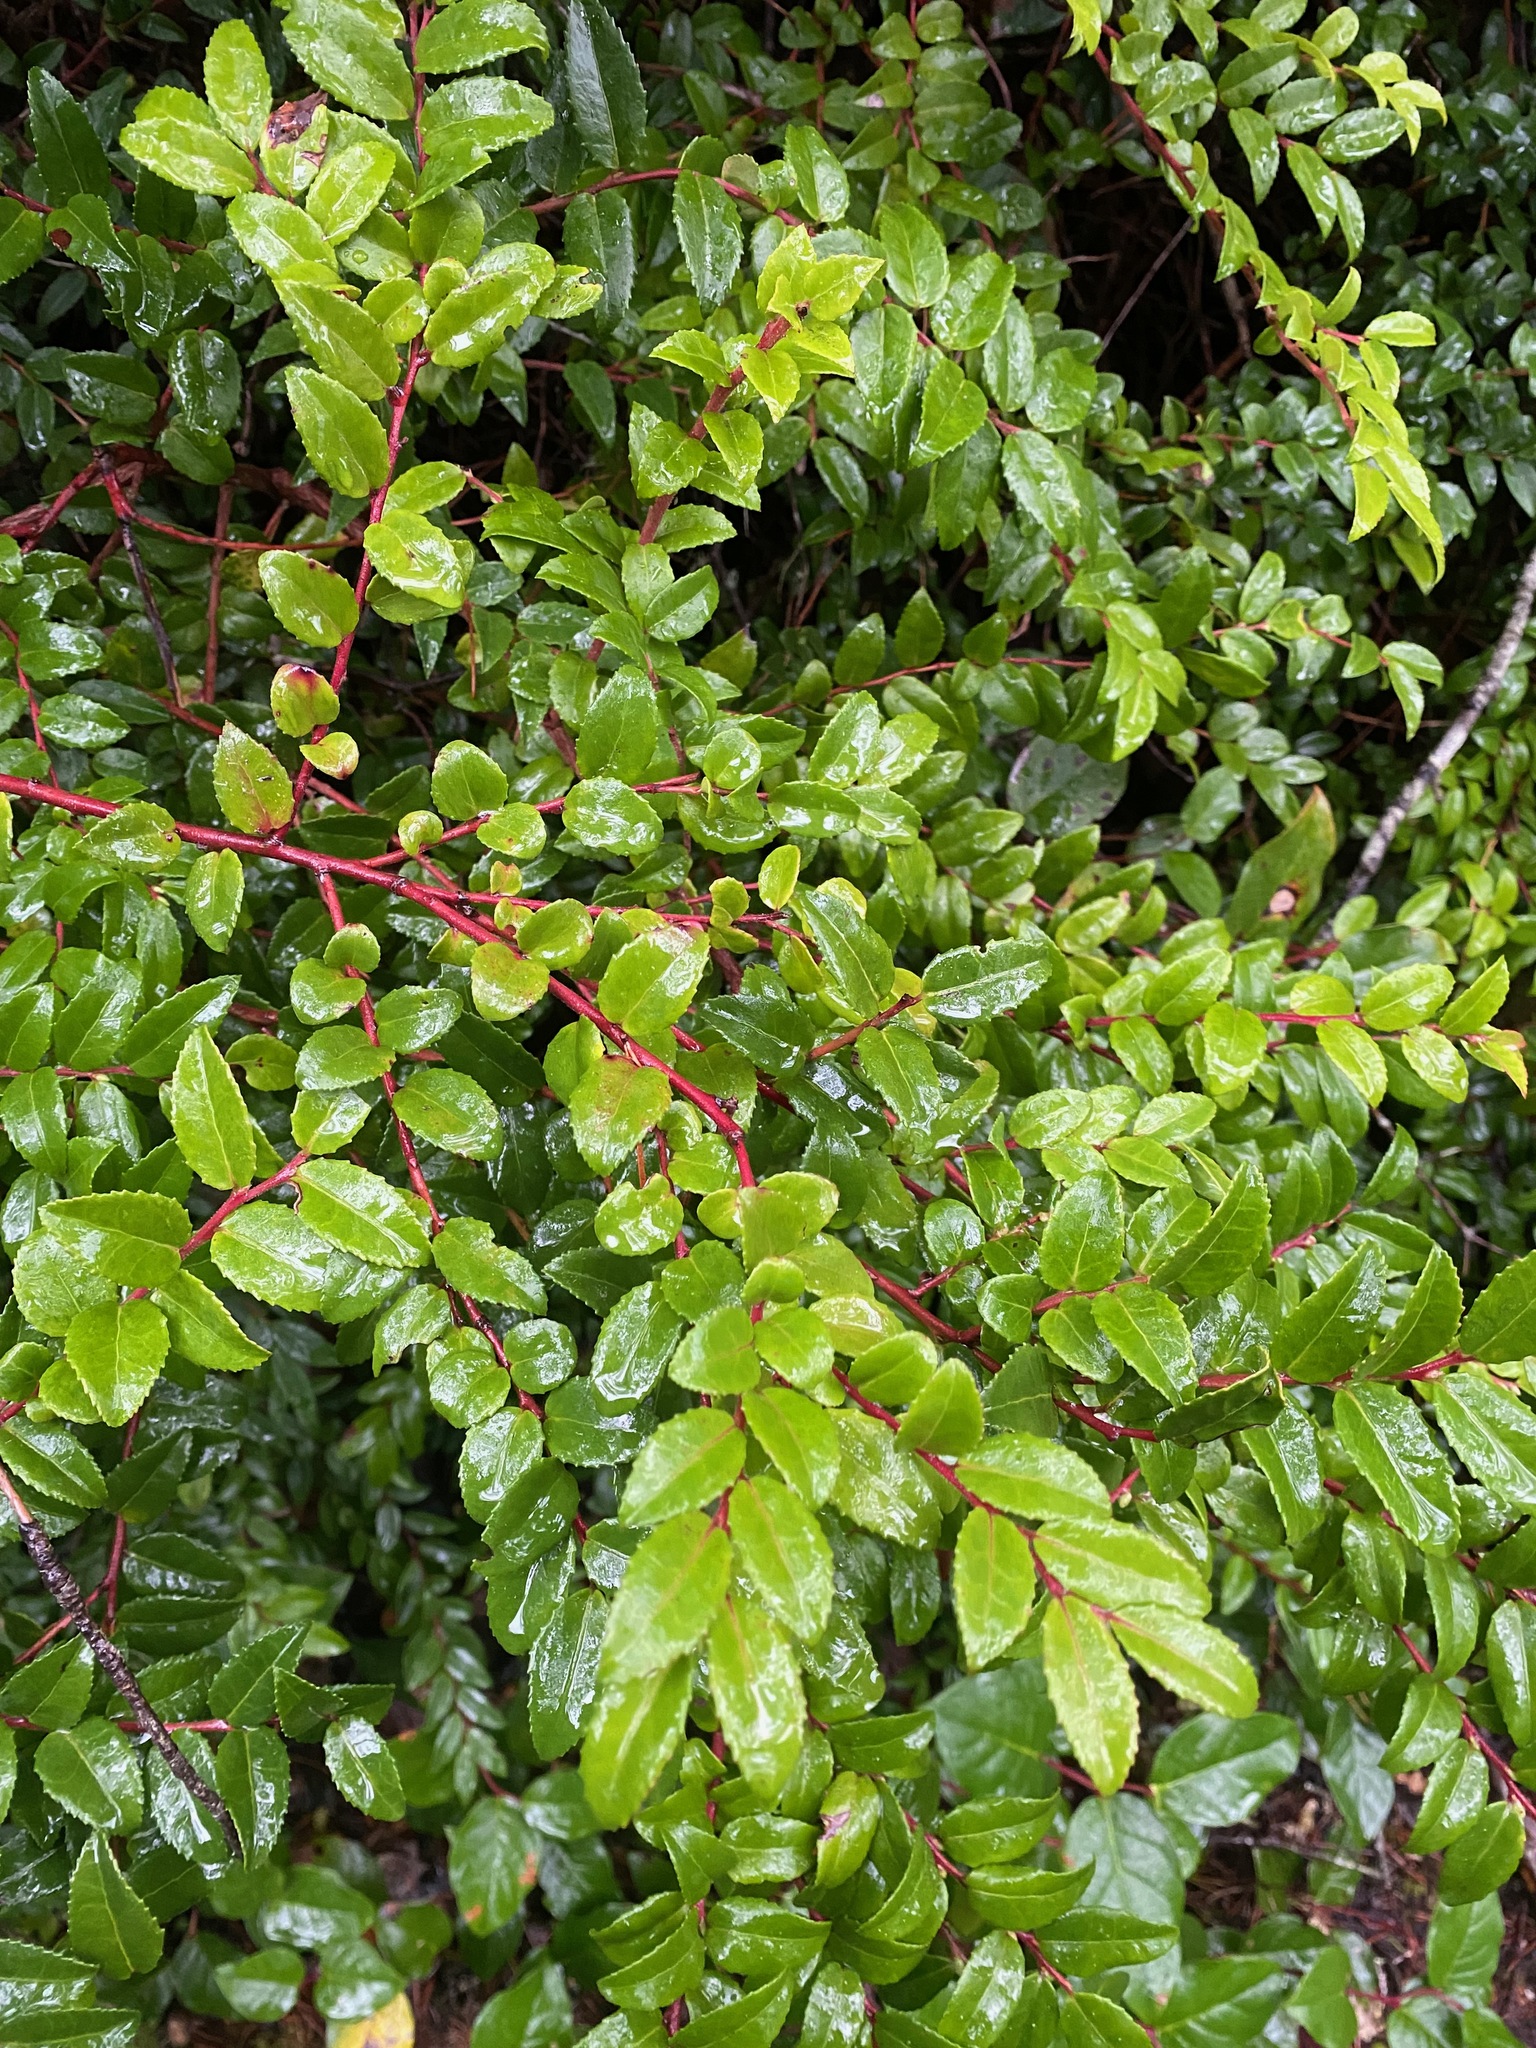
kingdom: Plantae
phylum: Tracheophyta
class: Magnoliopsida
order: Ericales
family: Ericaceae
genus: Vaccinium
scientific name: Vaccinium ovatum
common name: California-huckleberry
